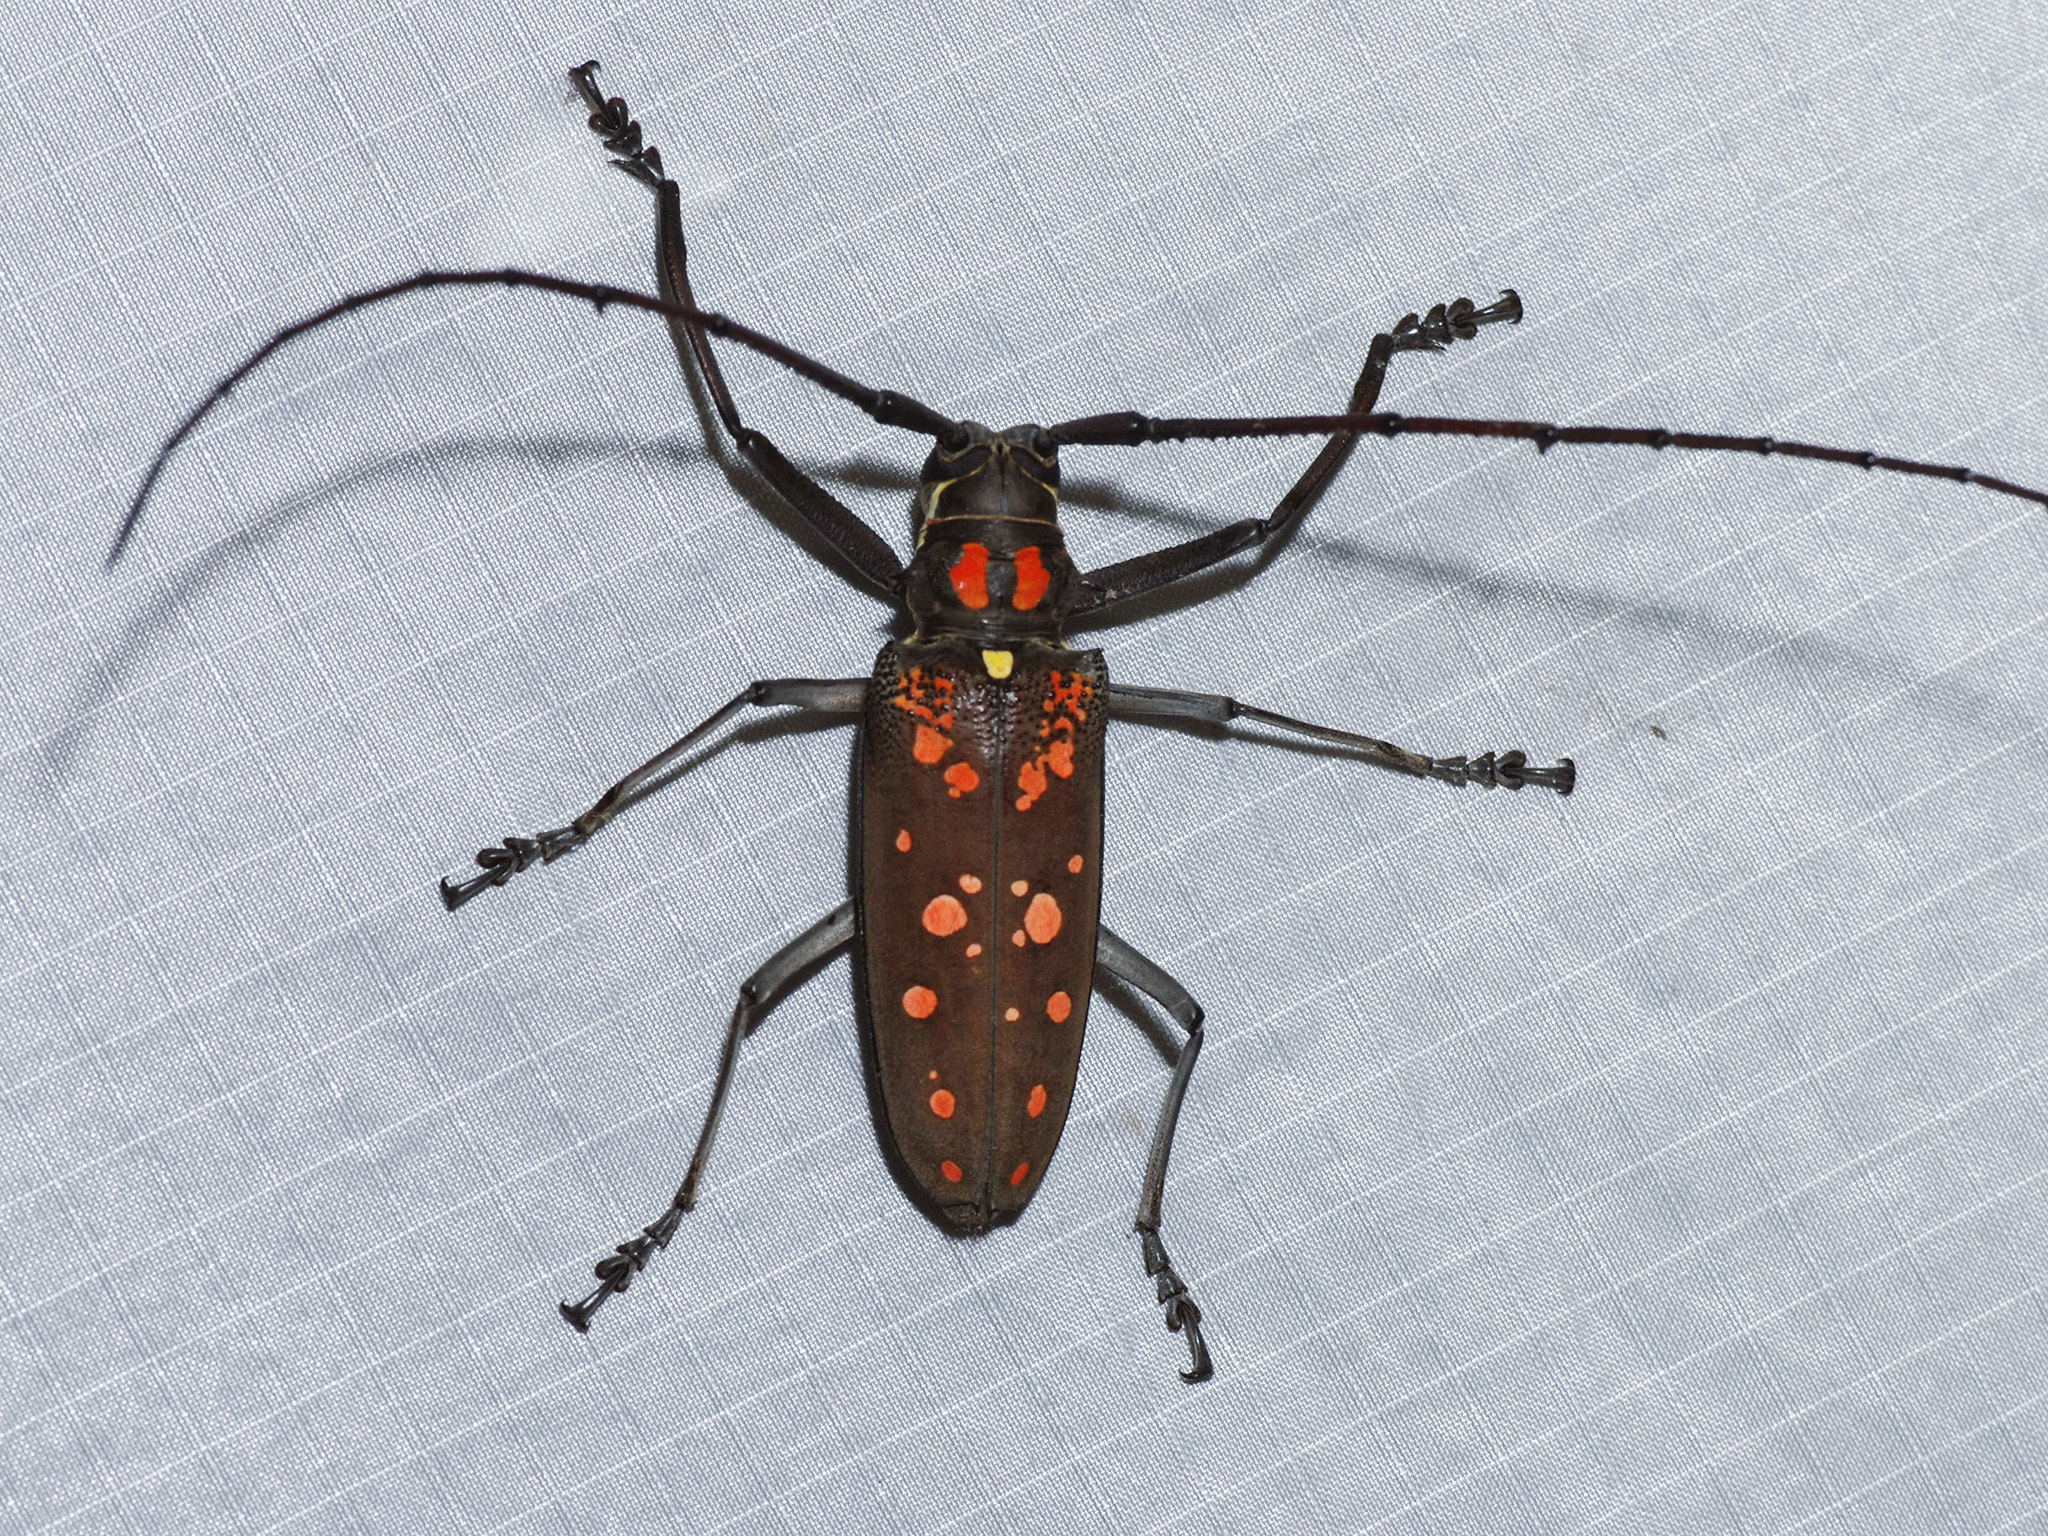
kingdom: Animalia
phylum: Arthropoda
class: Insecta
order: Coleoptera
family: Cerambycidae
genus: Batocera
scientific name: Batocera victoriana
